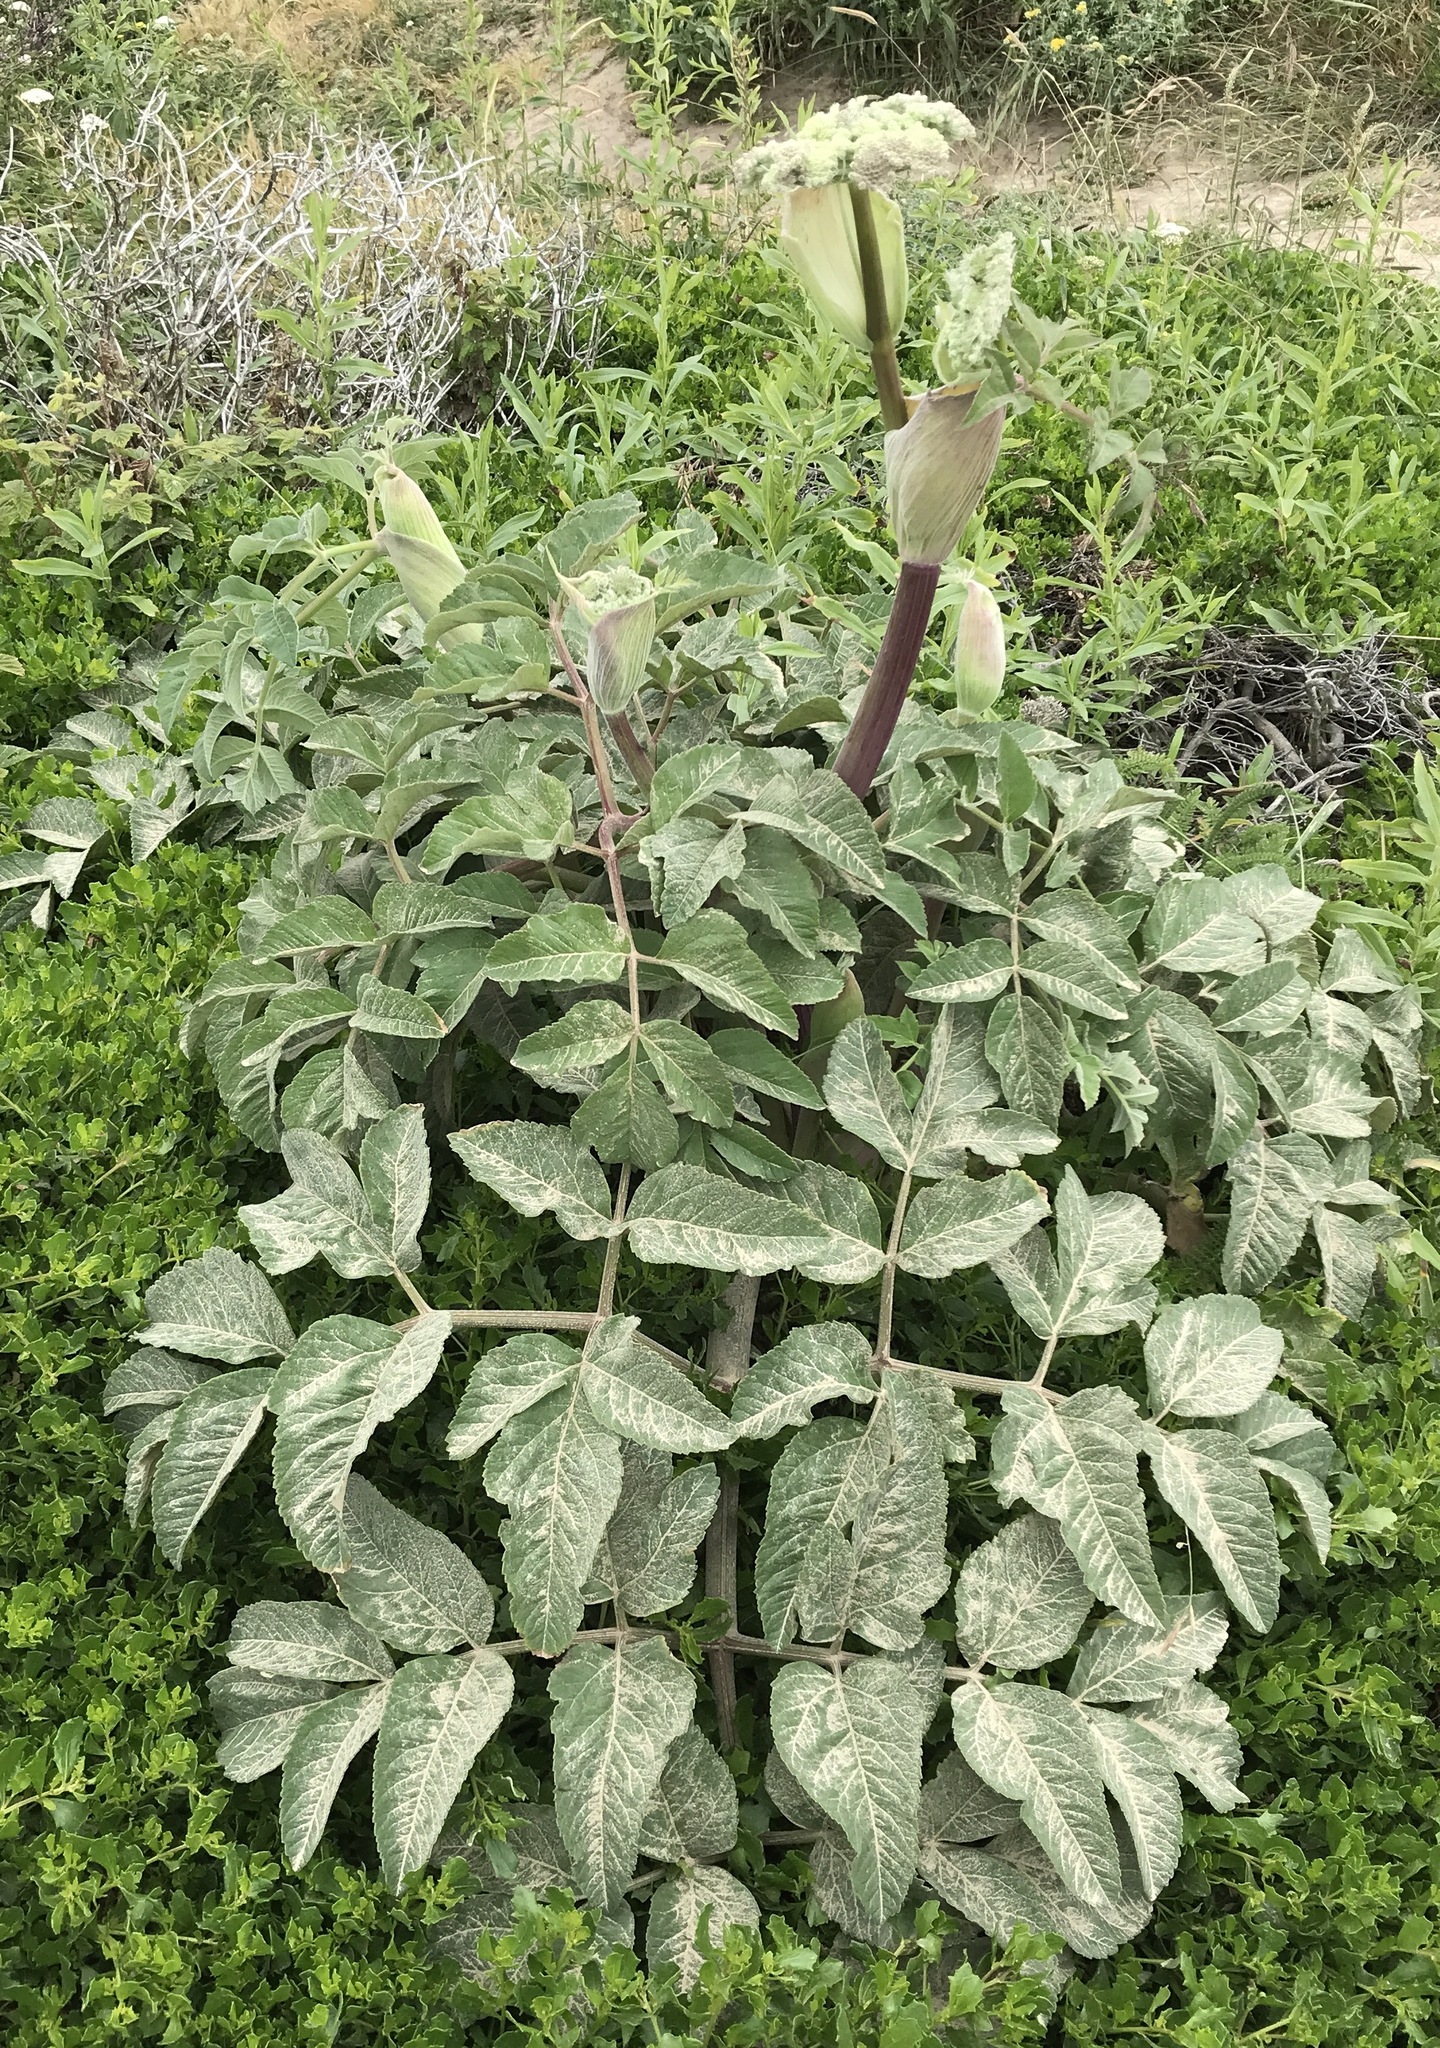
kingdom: Plantae
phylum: Tracheophyta
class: Magnoliopsida
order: Apiales
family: Apiaceae
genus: Angelica
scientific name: Angelica hendersonii
